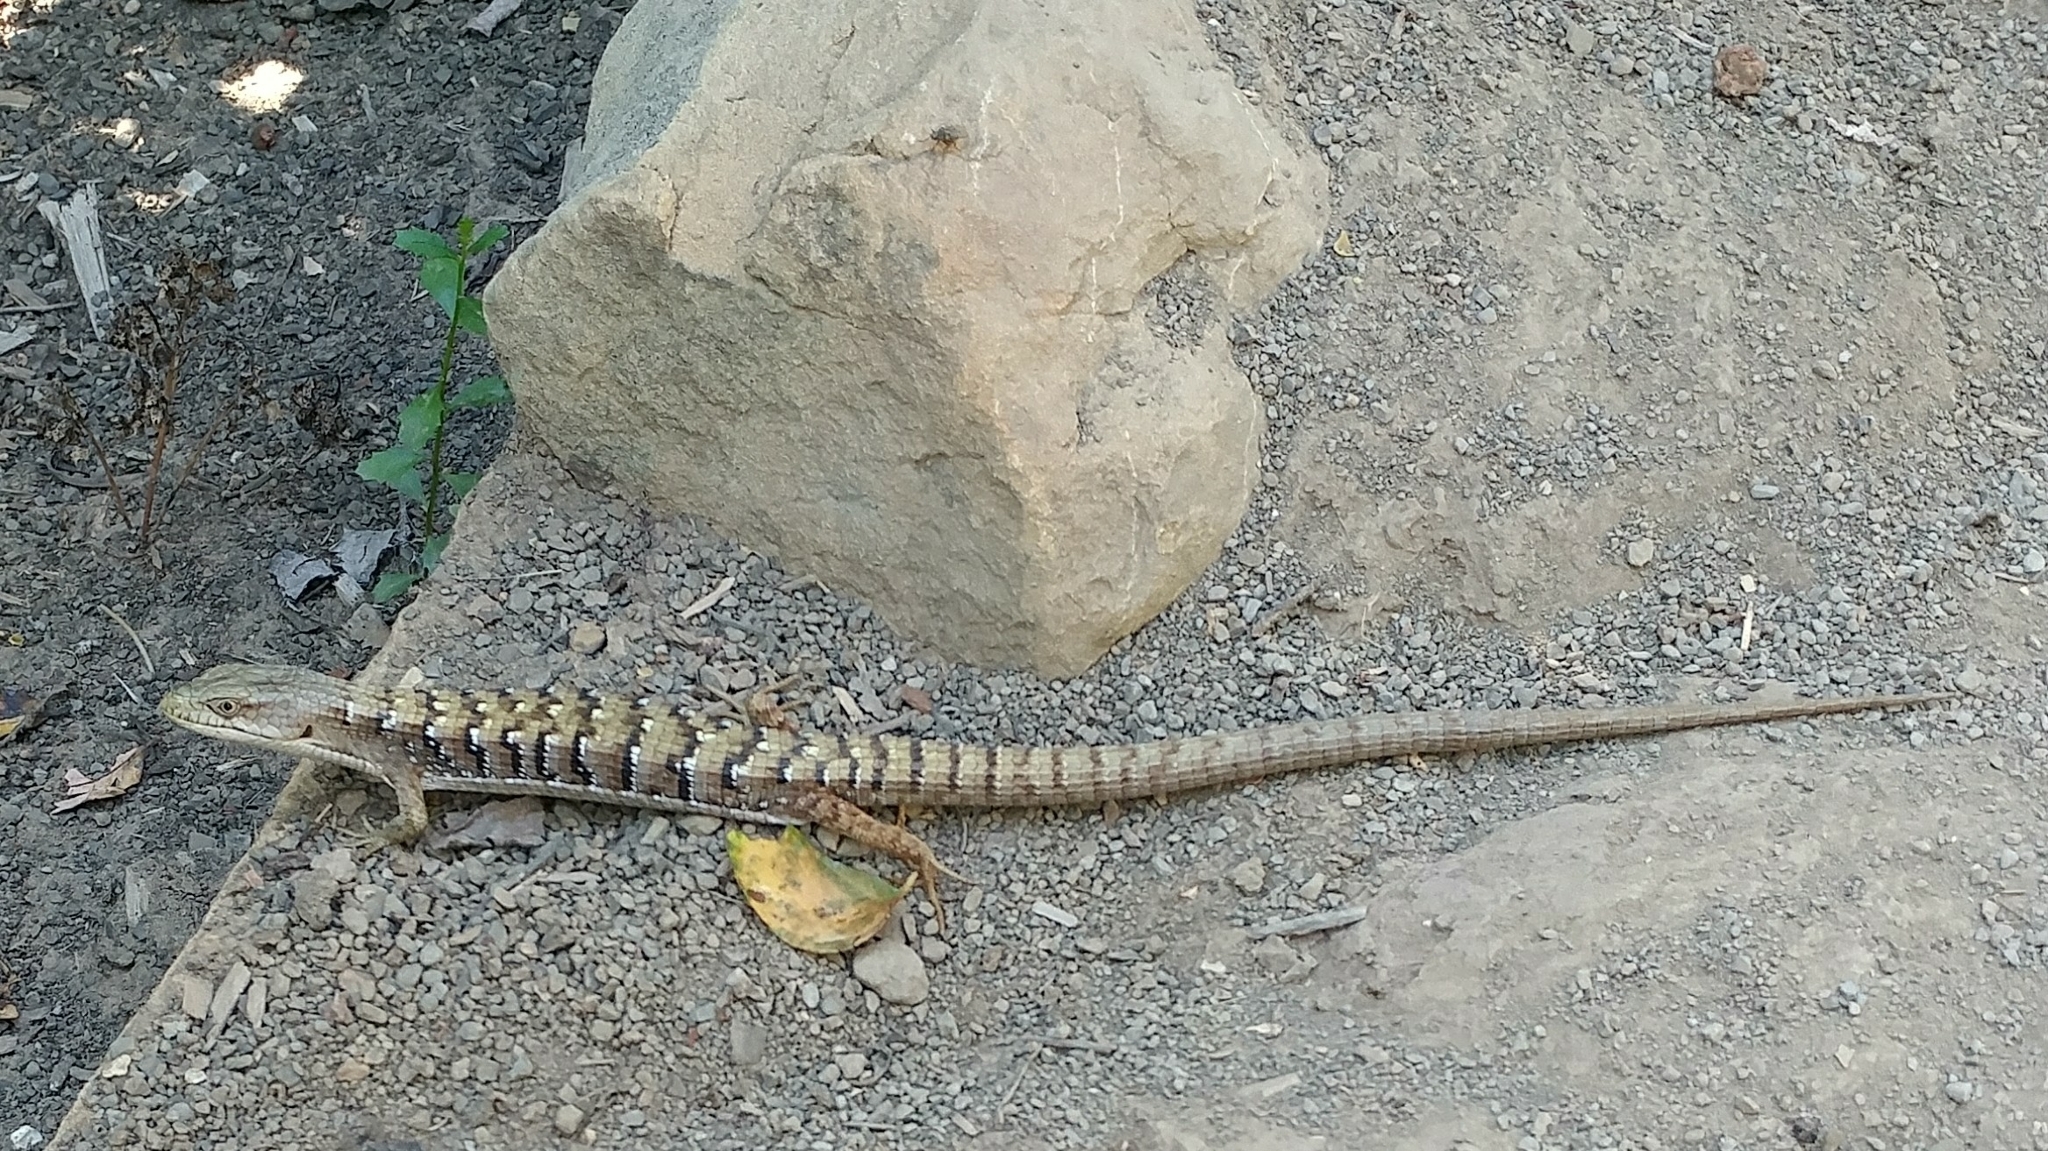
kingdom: Animalia
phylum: Chordata
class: Squamata
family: Anguidae
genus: Elgaria
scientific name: Elgaria multicarinata
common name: Southern alligator lizard
